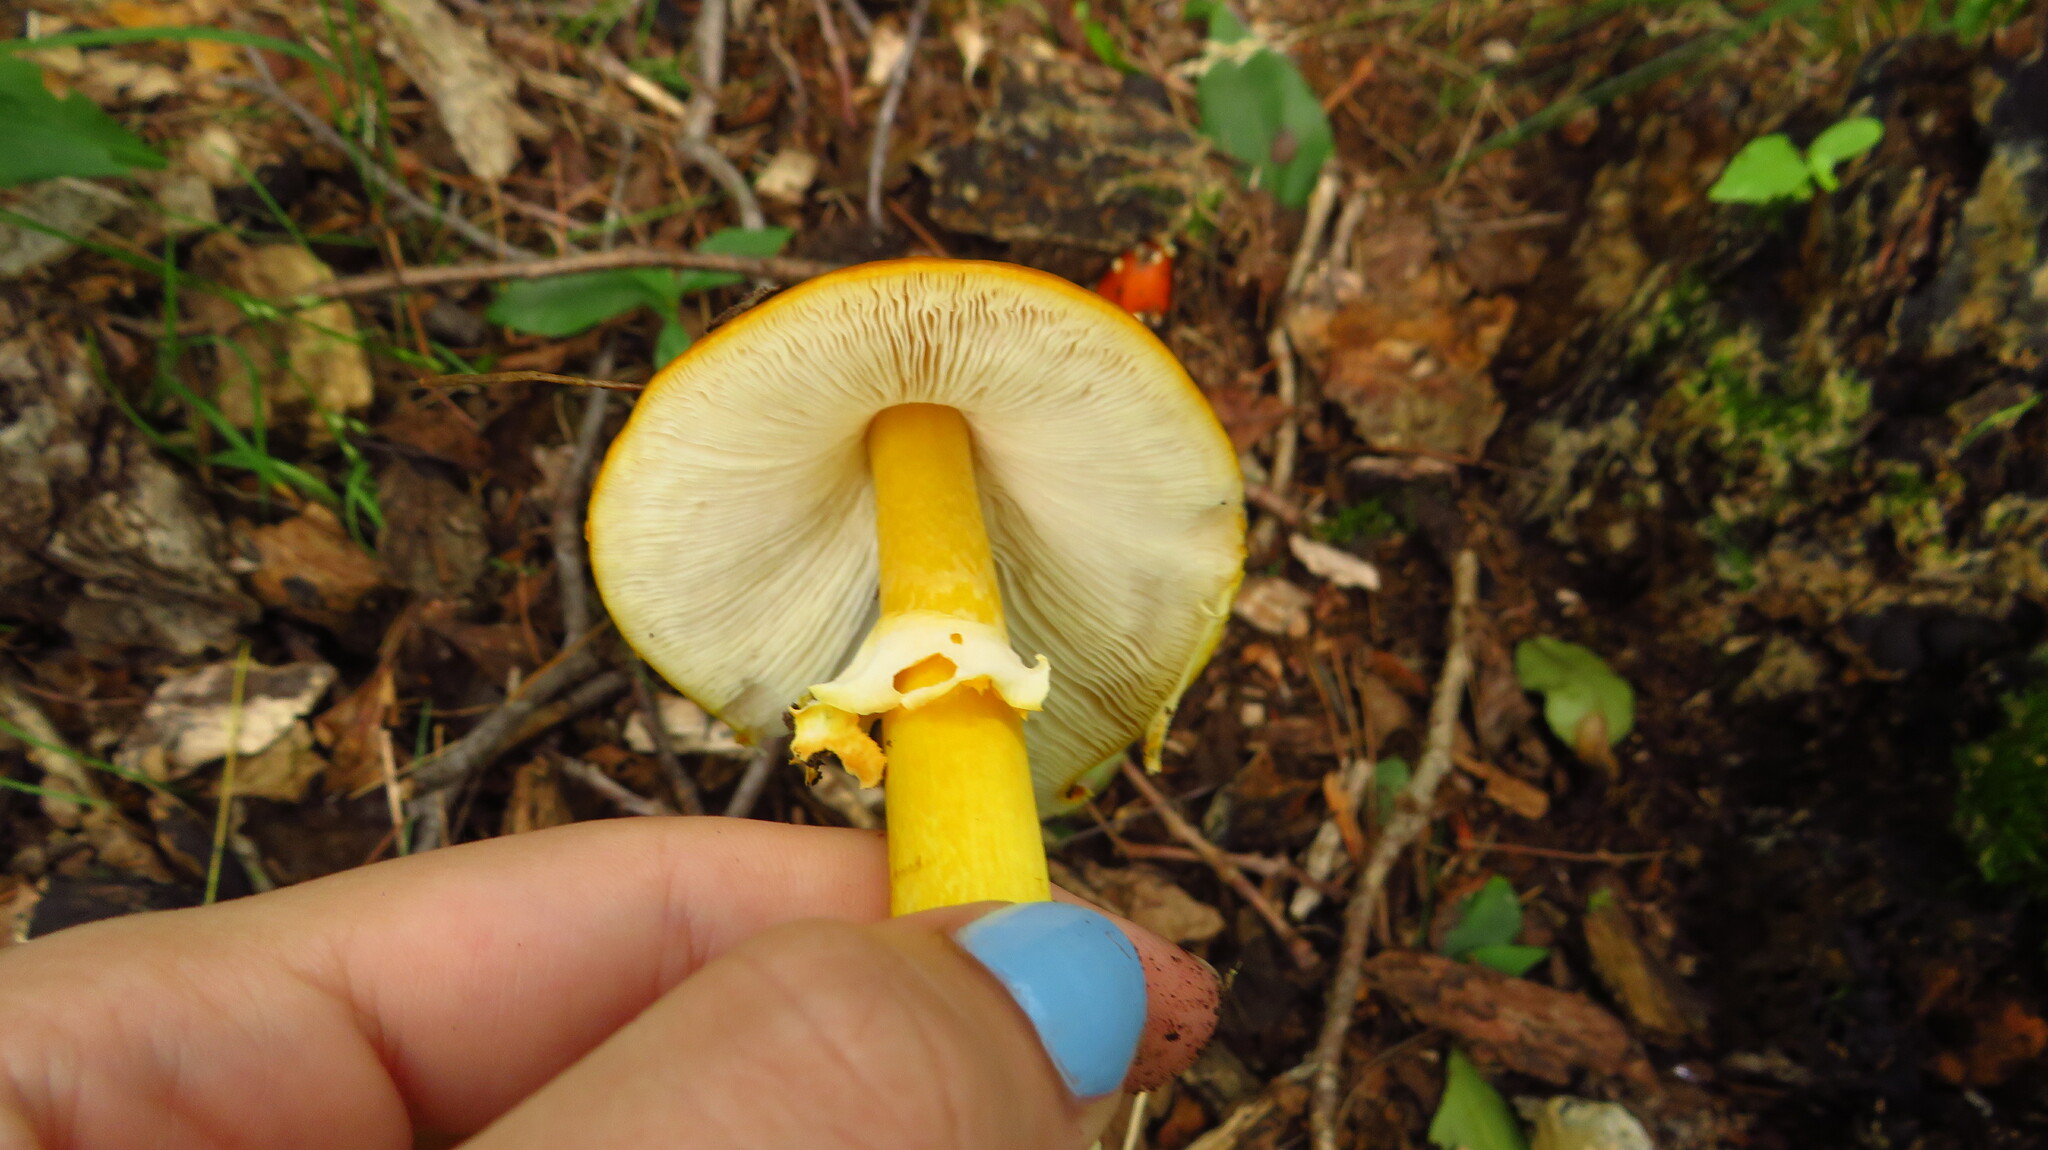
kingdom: Fungi
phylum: Basidiomycota
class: Agaricomycetes
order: Agaricales
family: Amanitaceae
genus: Amanita
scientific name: Amanita erythrocephala
